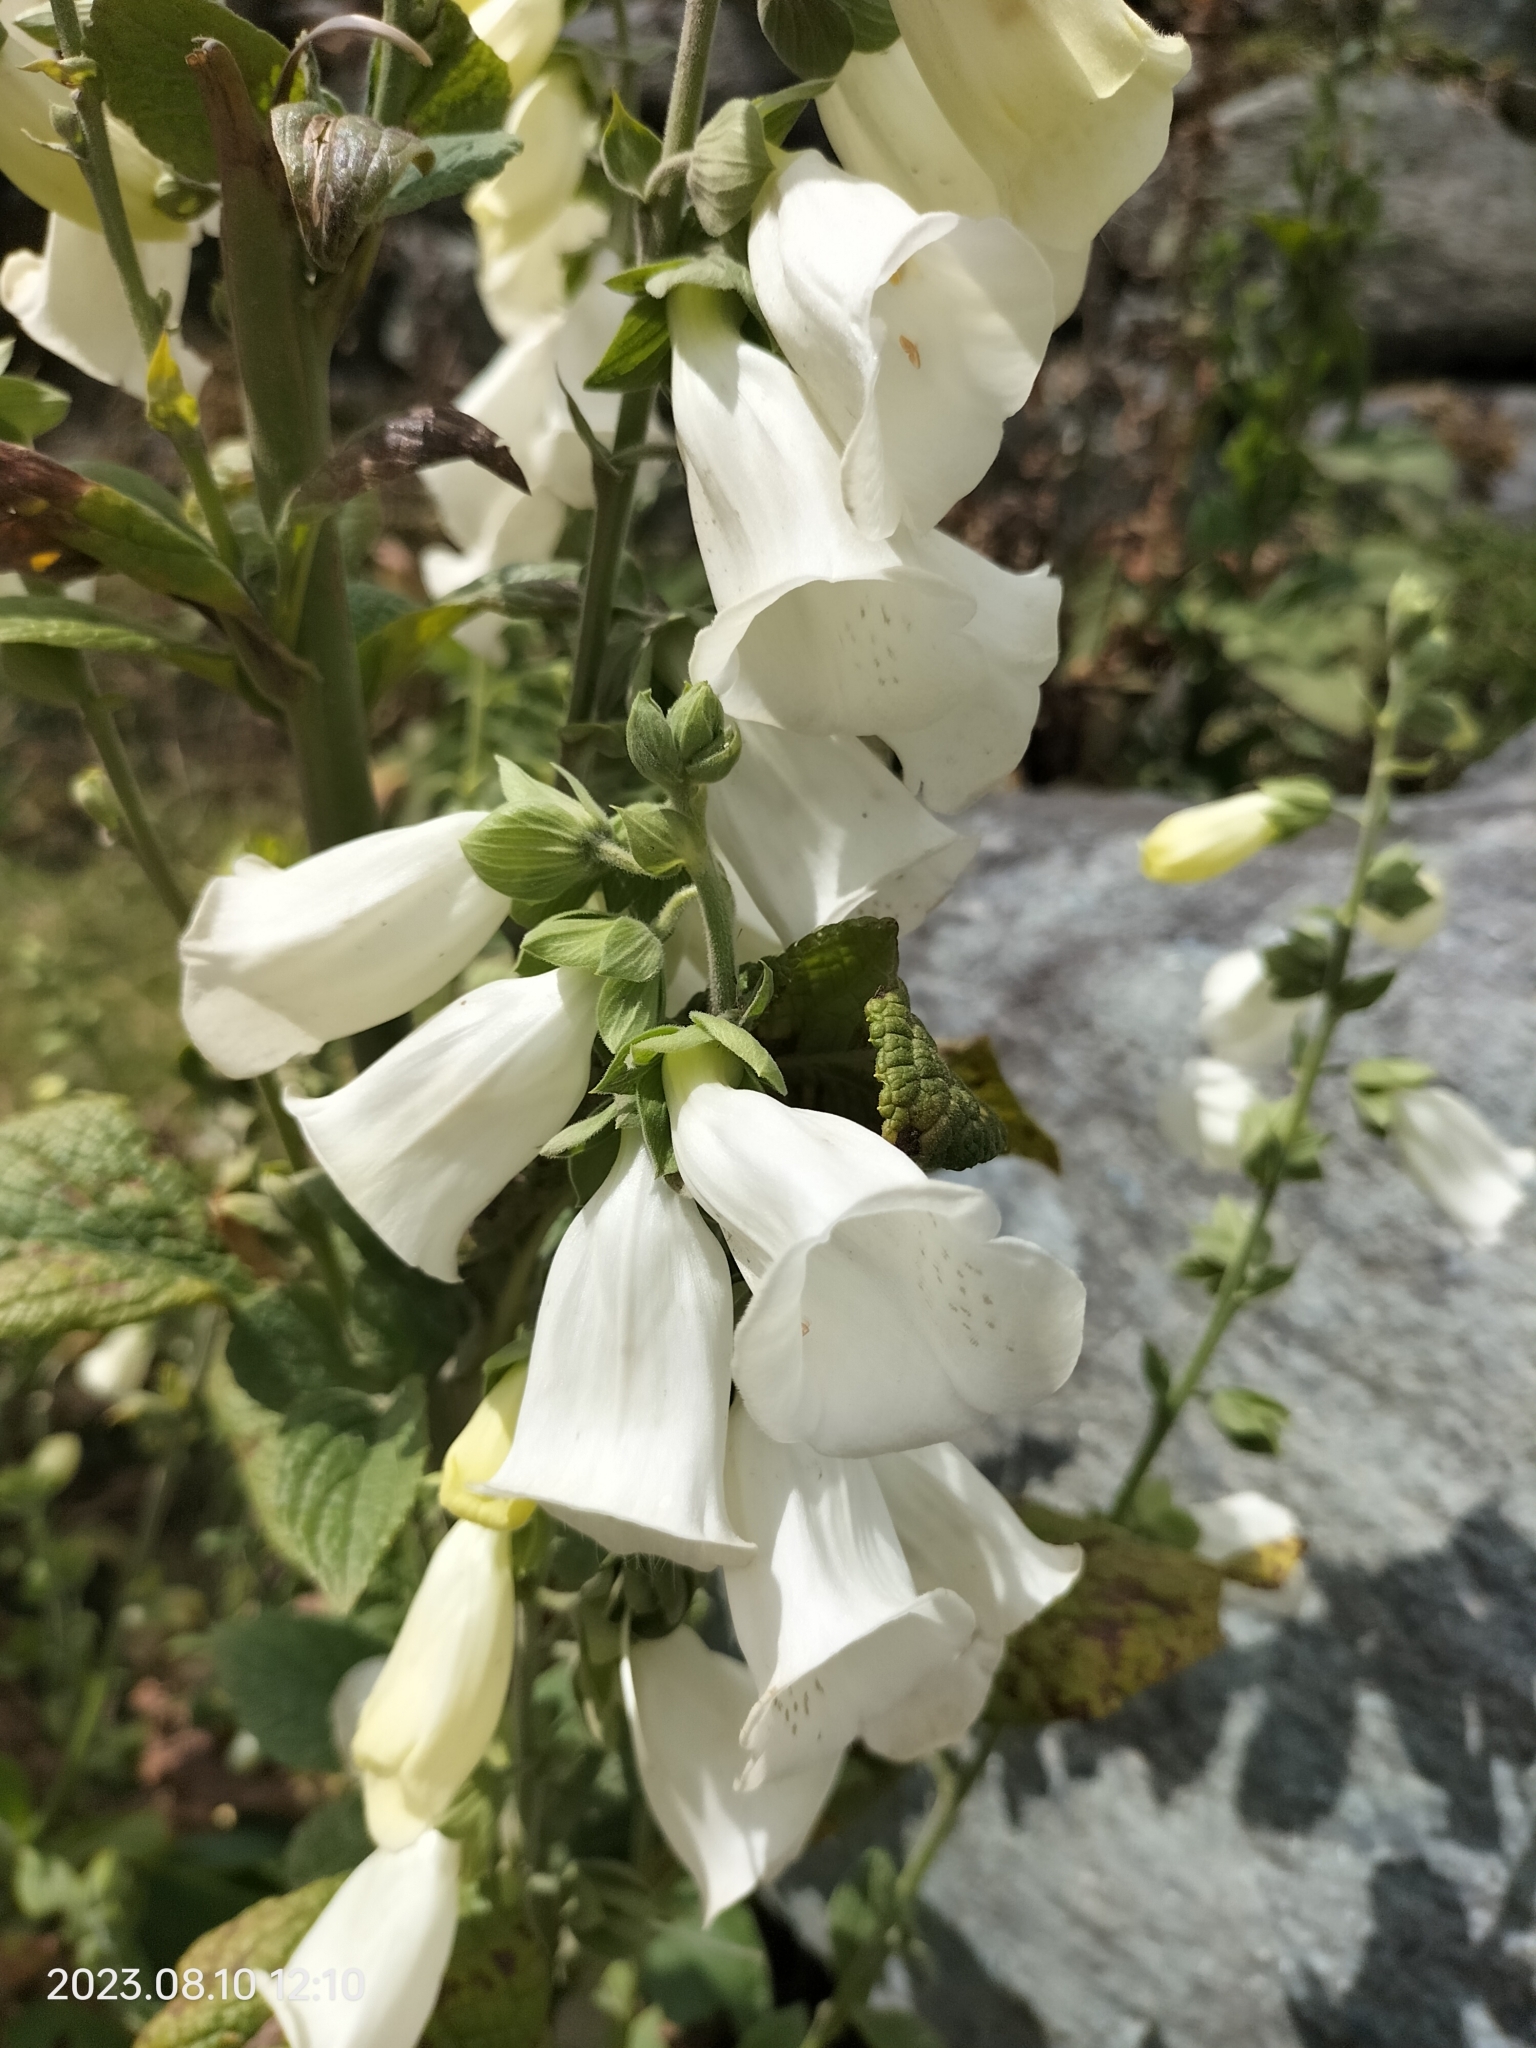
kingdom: Plantae
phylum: Tracheophyta
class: Magnoliopsida
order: Lamiales
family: Plantaginaceae
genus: Digitalis
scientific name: Digitalis purpurea
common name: Foxglove
